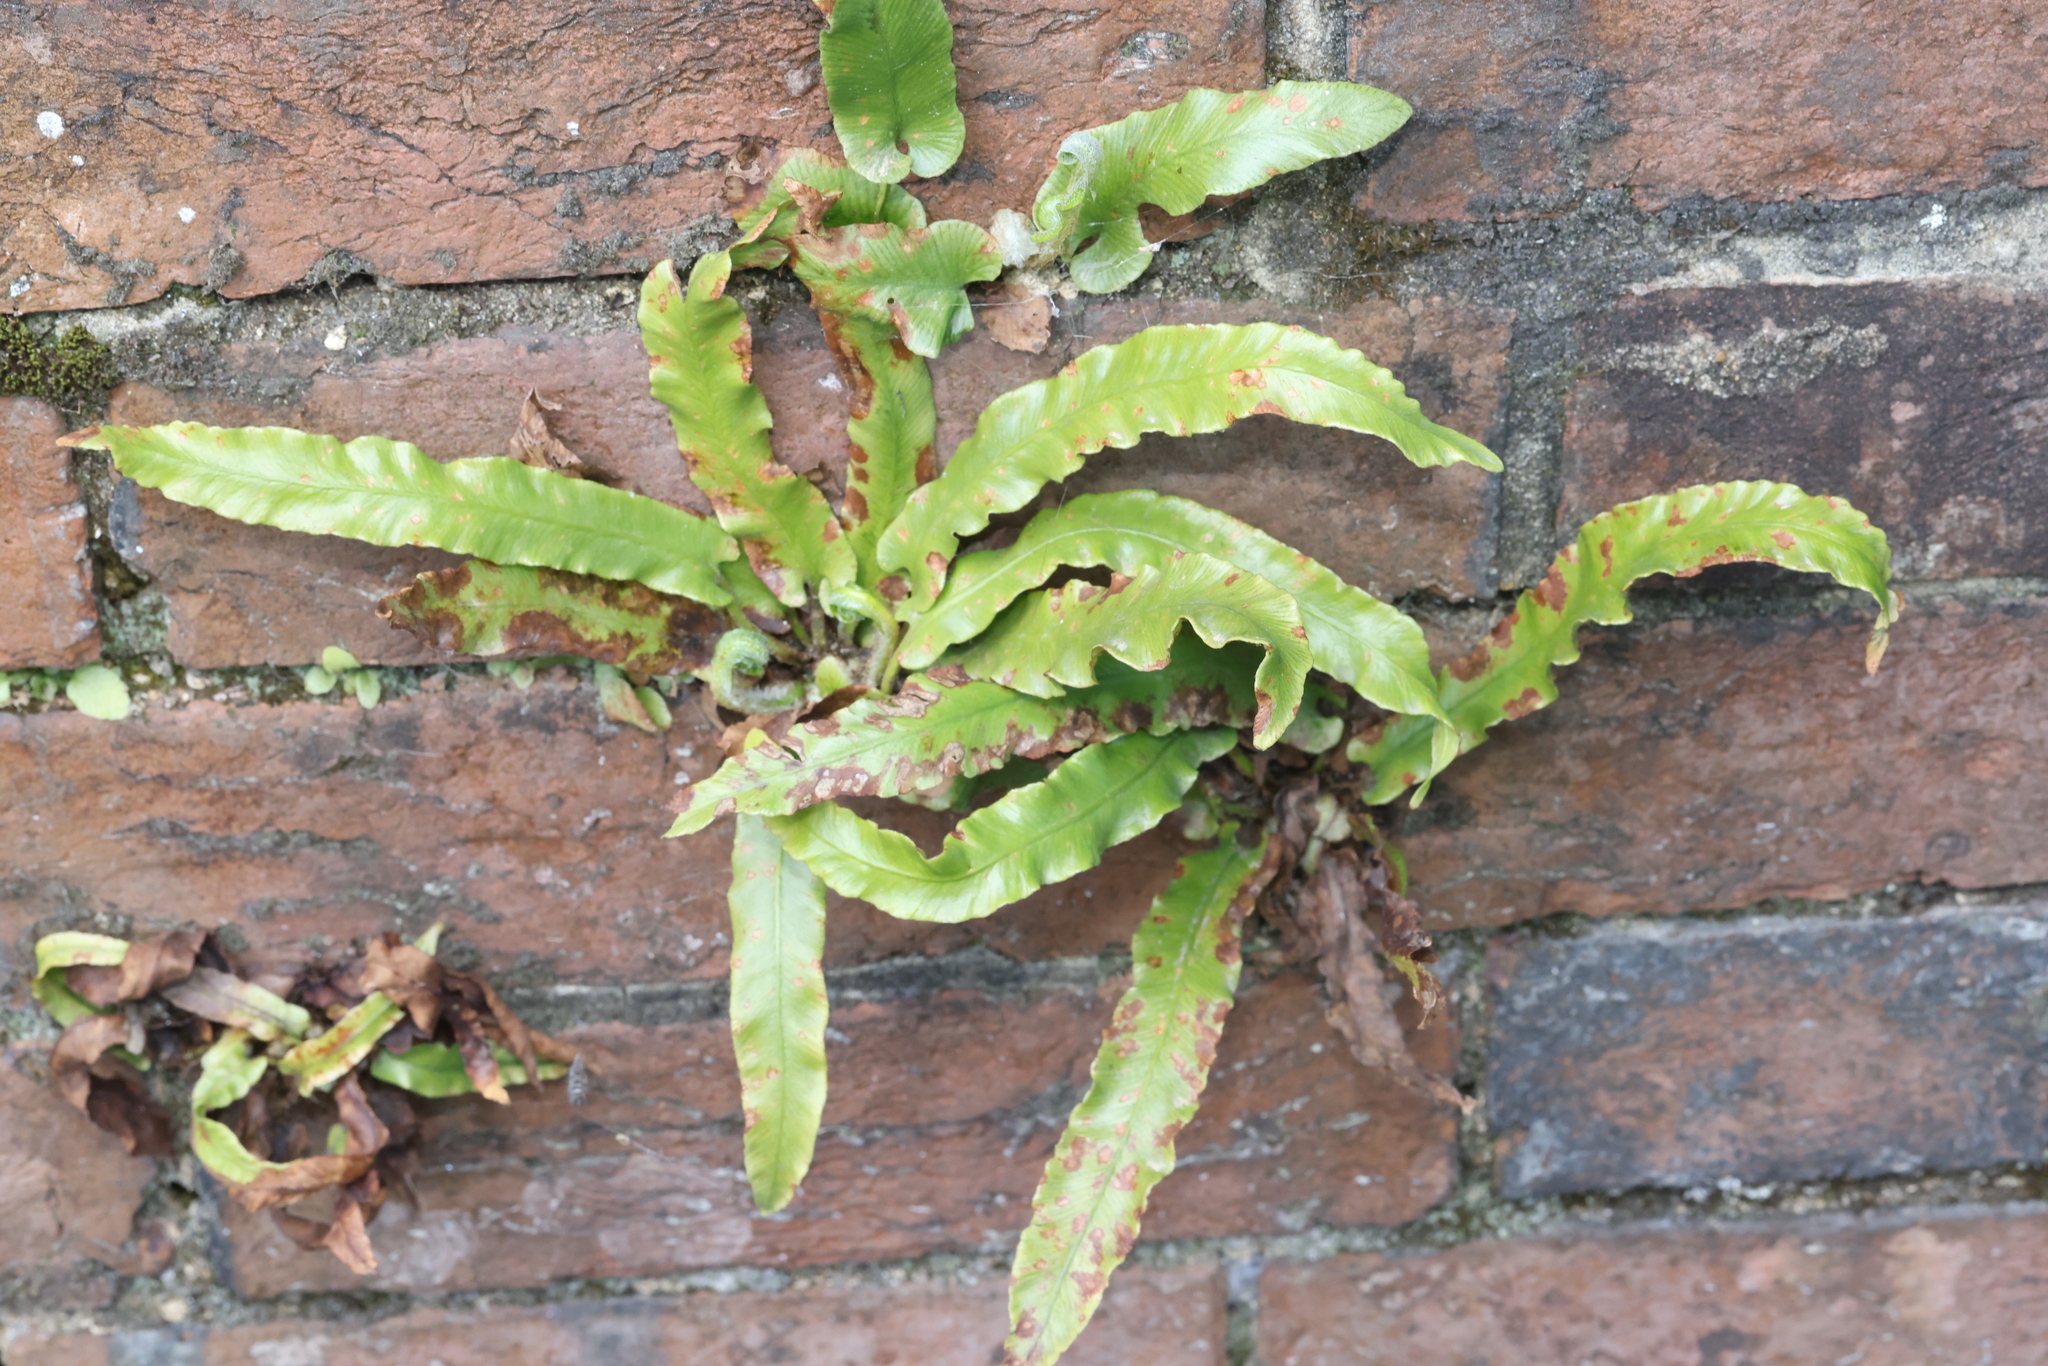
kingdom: Plantae
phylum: Tracheophyta
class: Polypodiopsida
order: Polypodiales
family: Aspleniaceae
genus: Asplenium
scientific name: Asplenium scolopendrium
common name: Hart's-tongue fern
